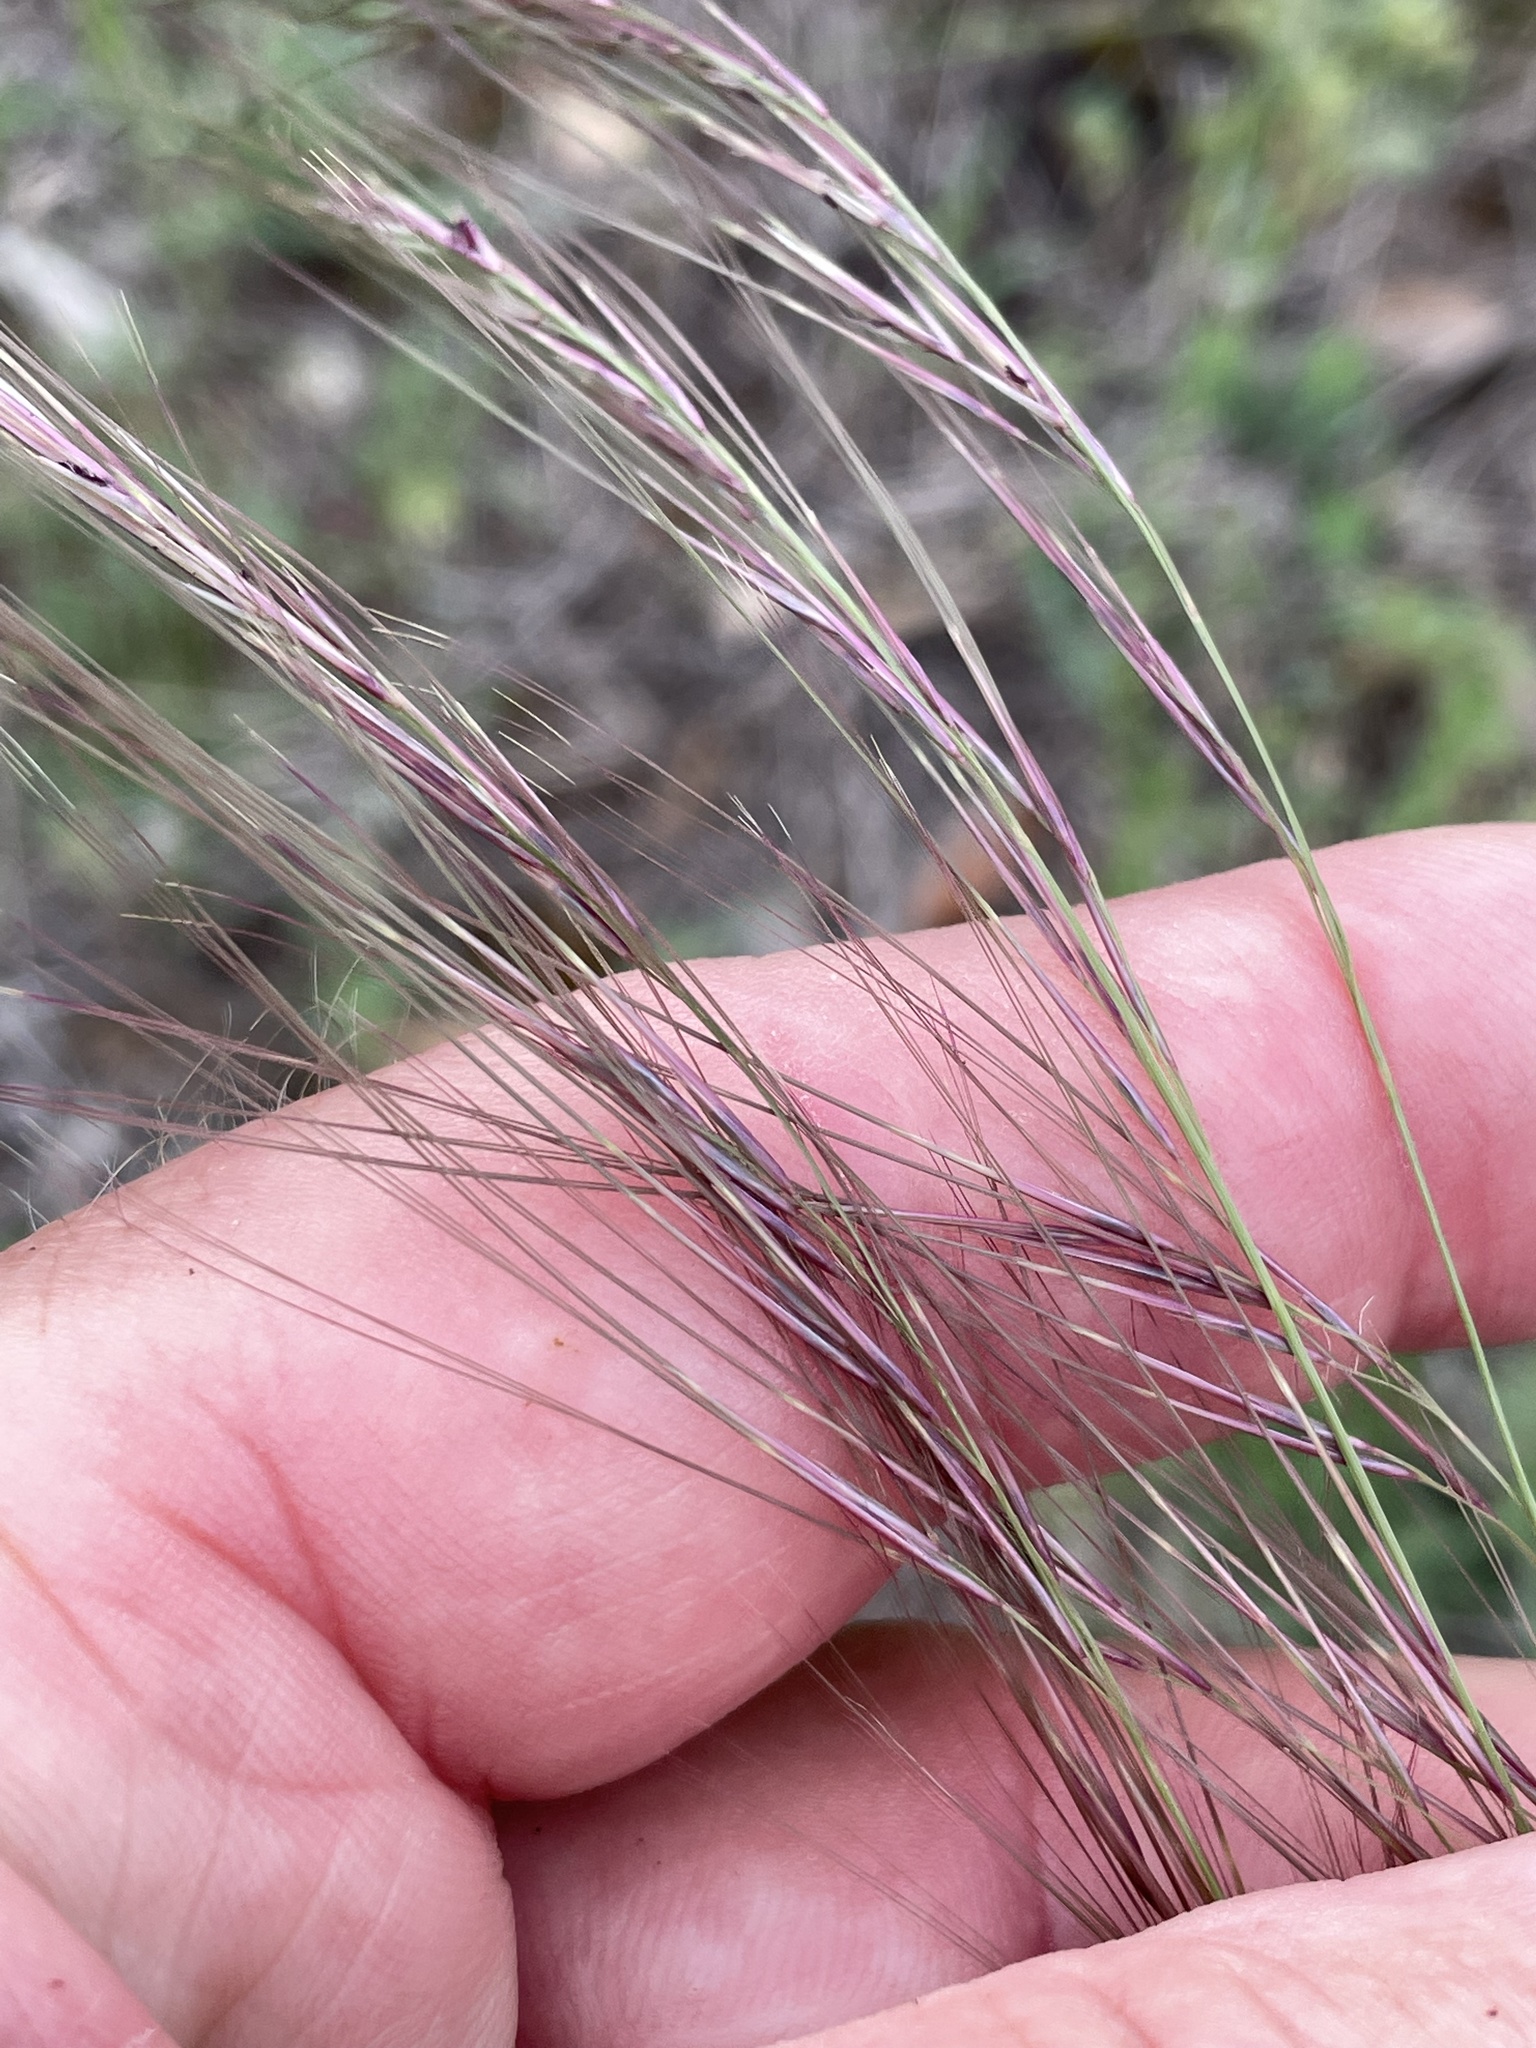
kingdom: Plantae
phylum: Tracheophyta
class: Liliopsida
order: Poales
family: Poaceae
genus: Aristida
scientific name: Aristida purpurea
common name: Purple threeawn
